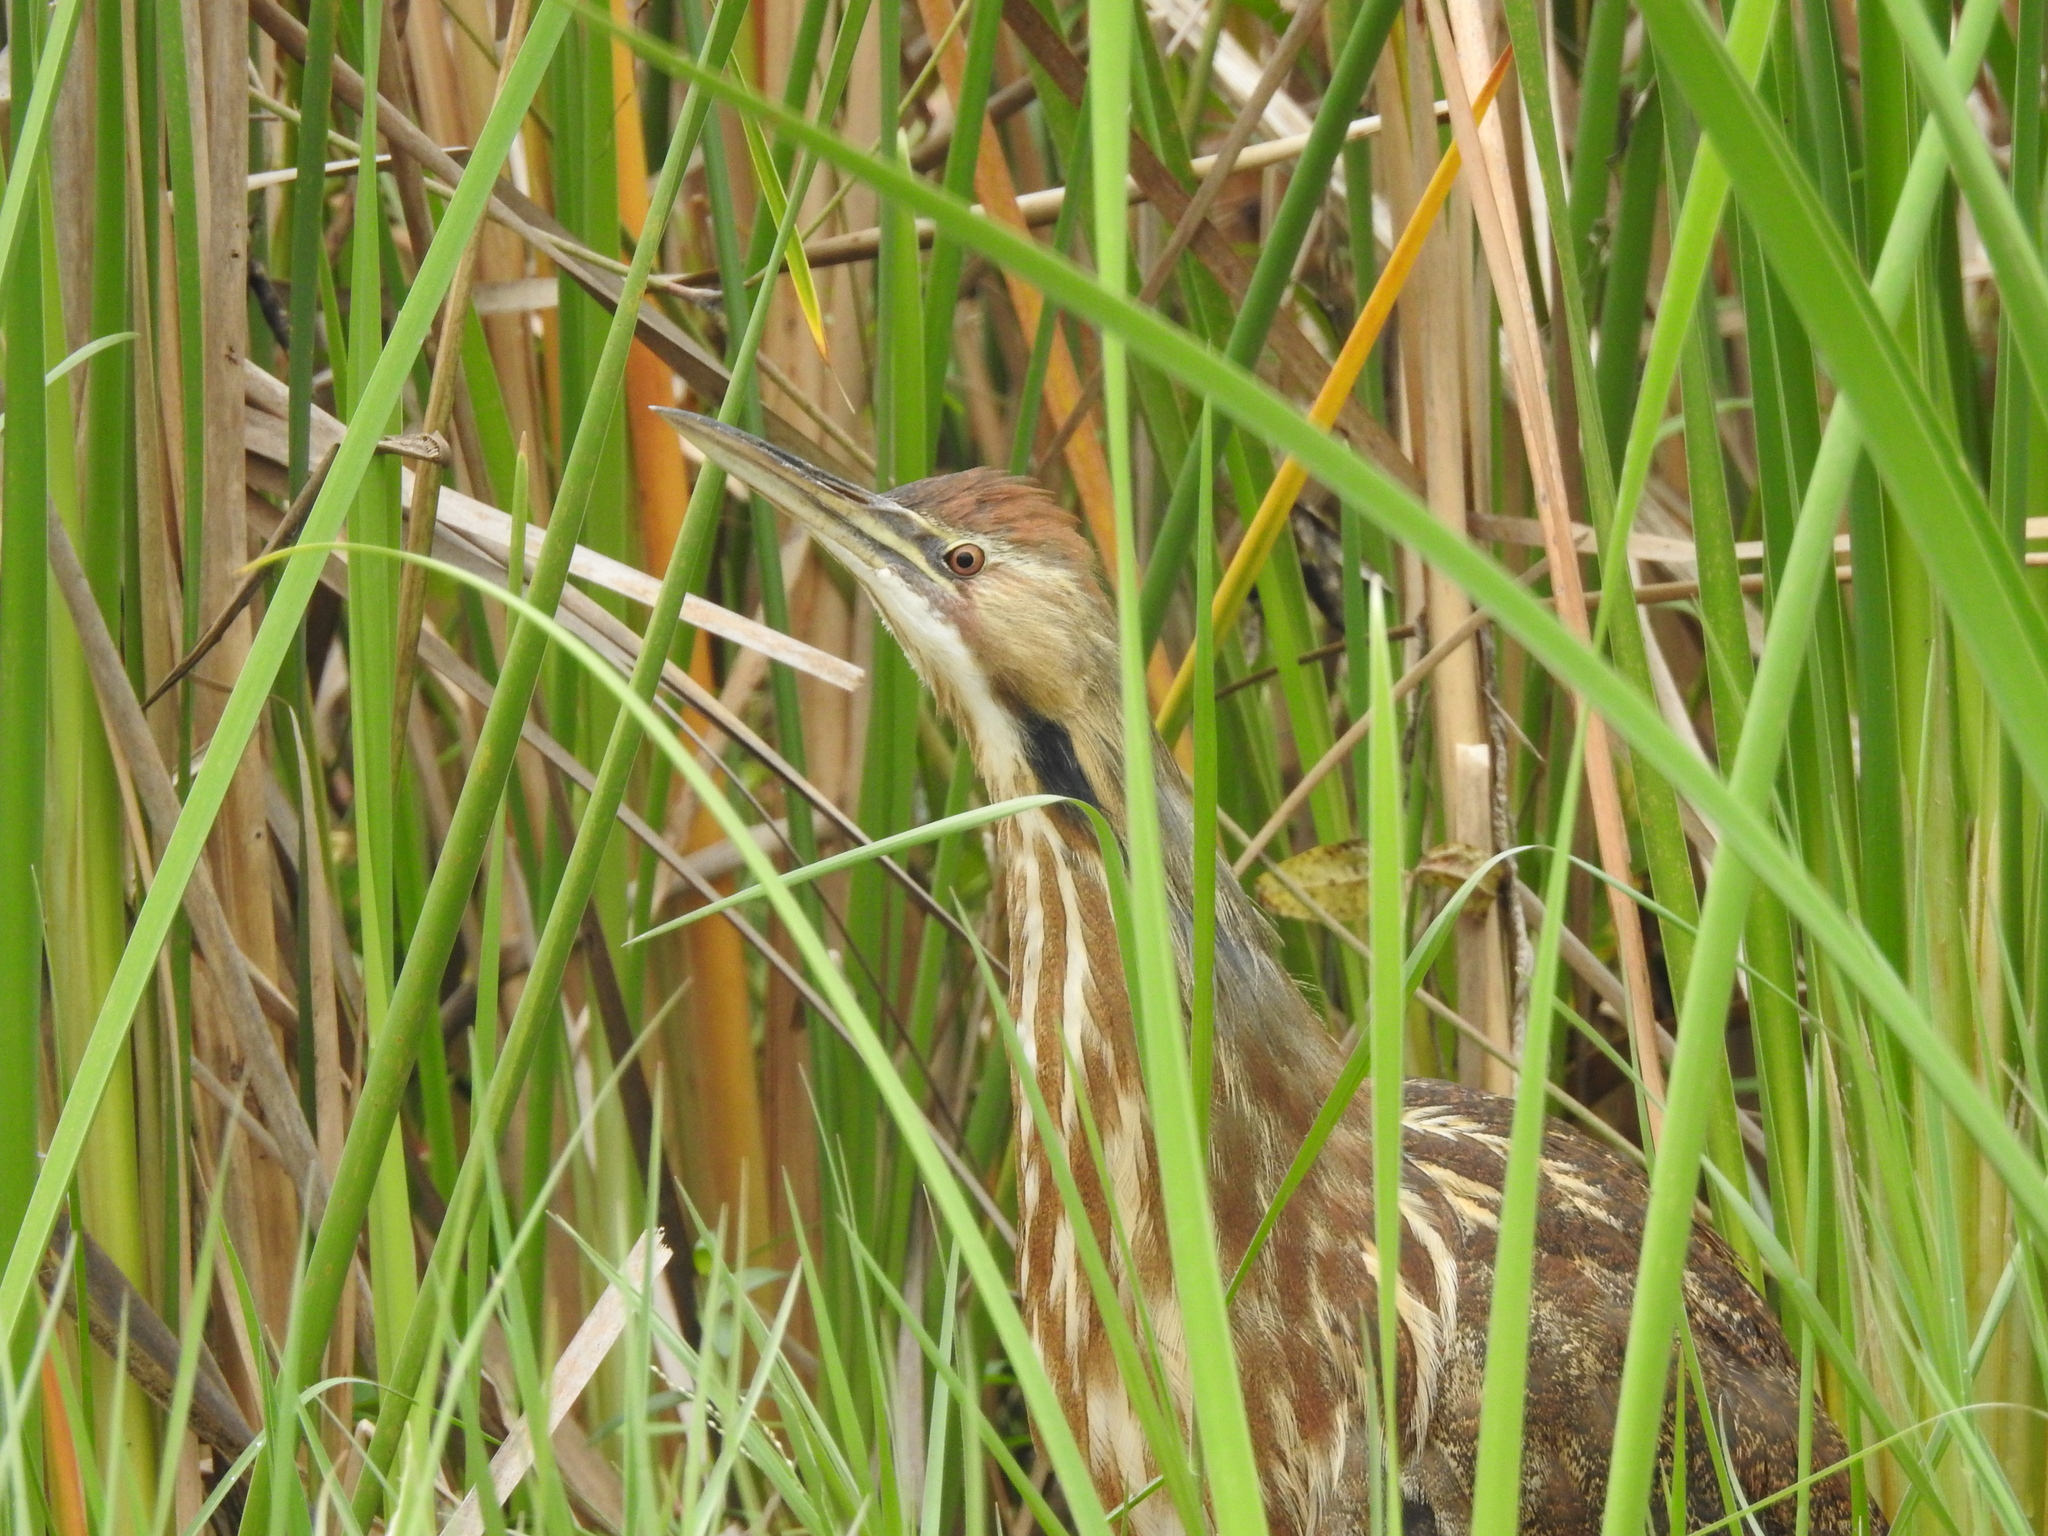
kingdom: Animalia
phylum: Chordata
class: Aves
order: Pelecaniformes
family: Ardeidae
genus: Botaurus
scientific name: Botaurus lentiginosus
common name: American bittern
